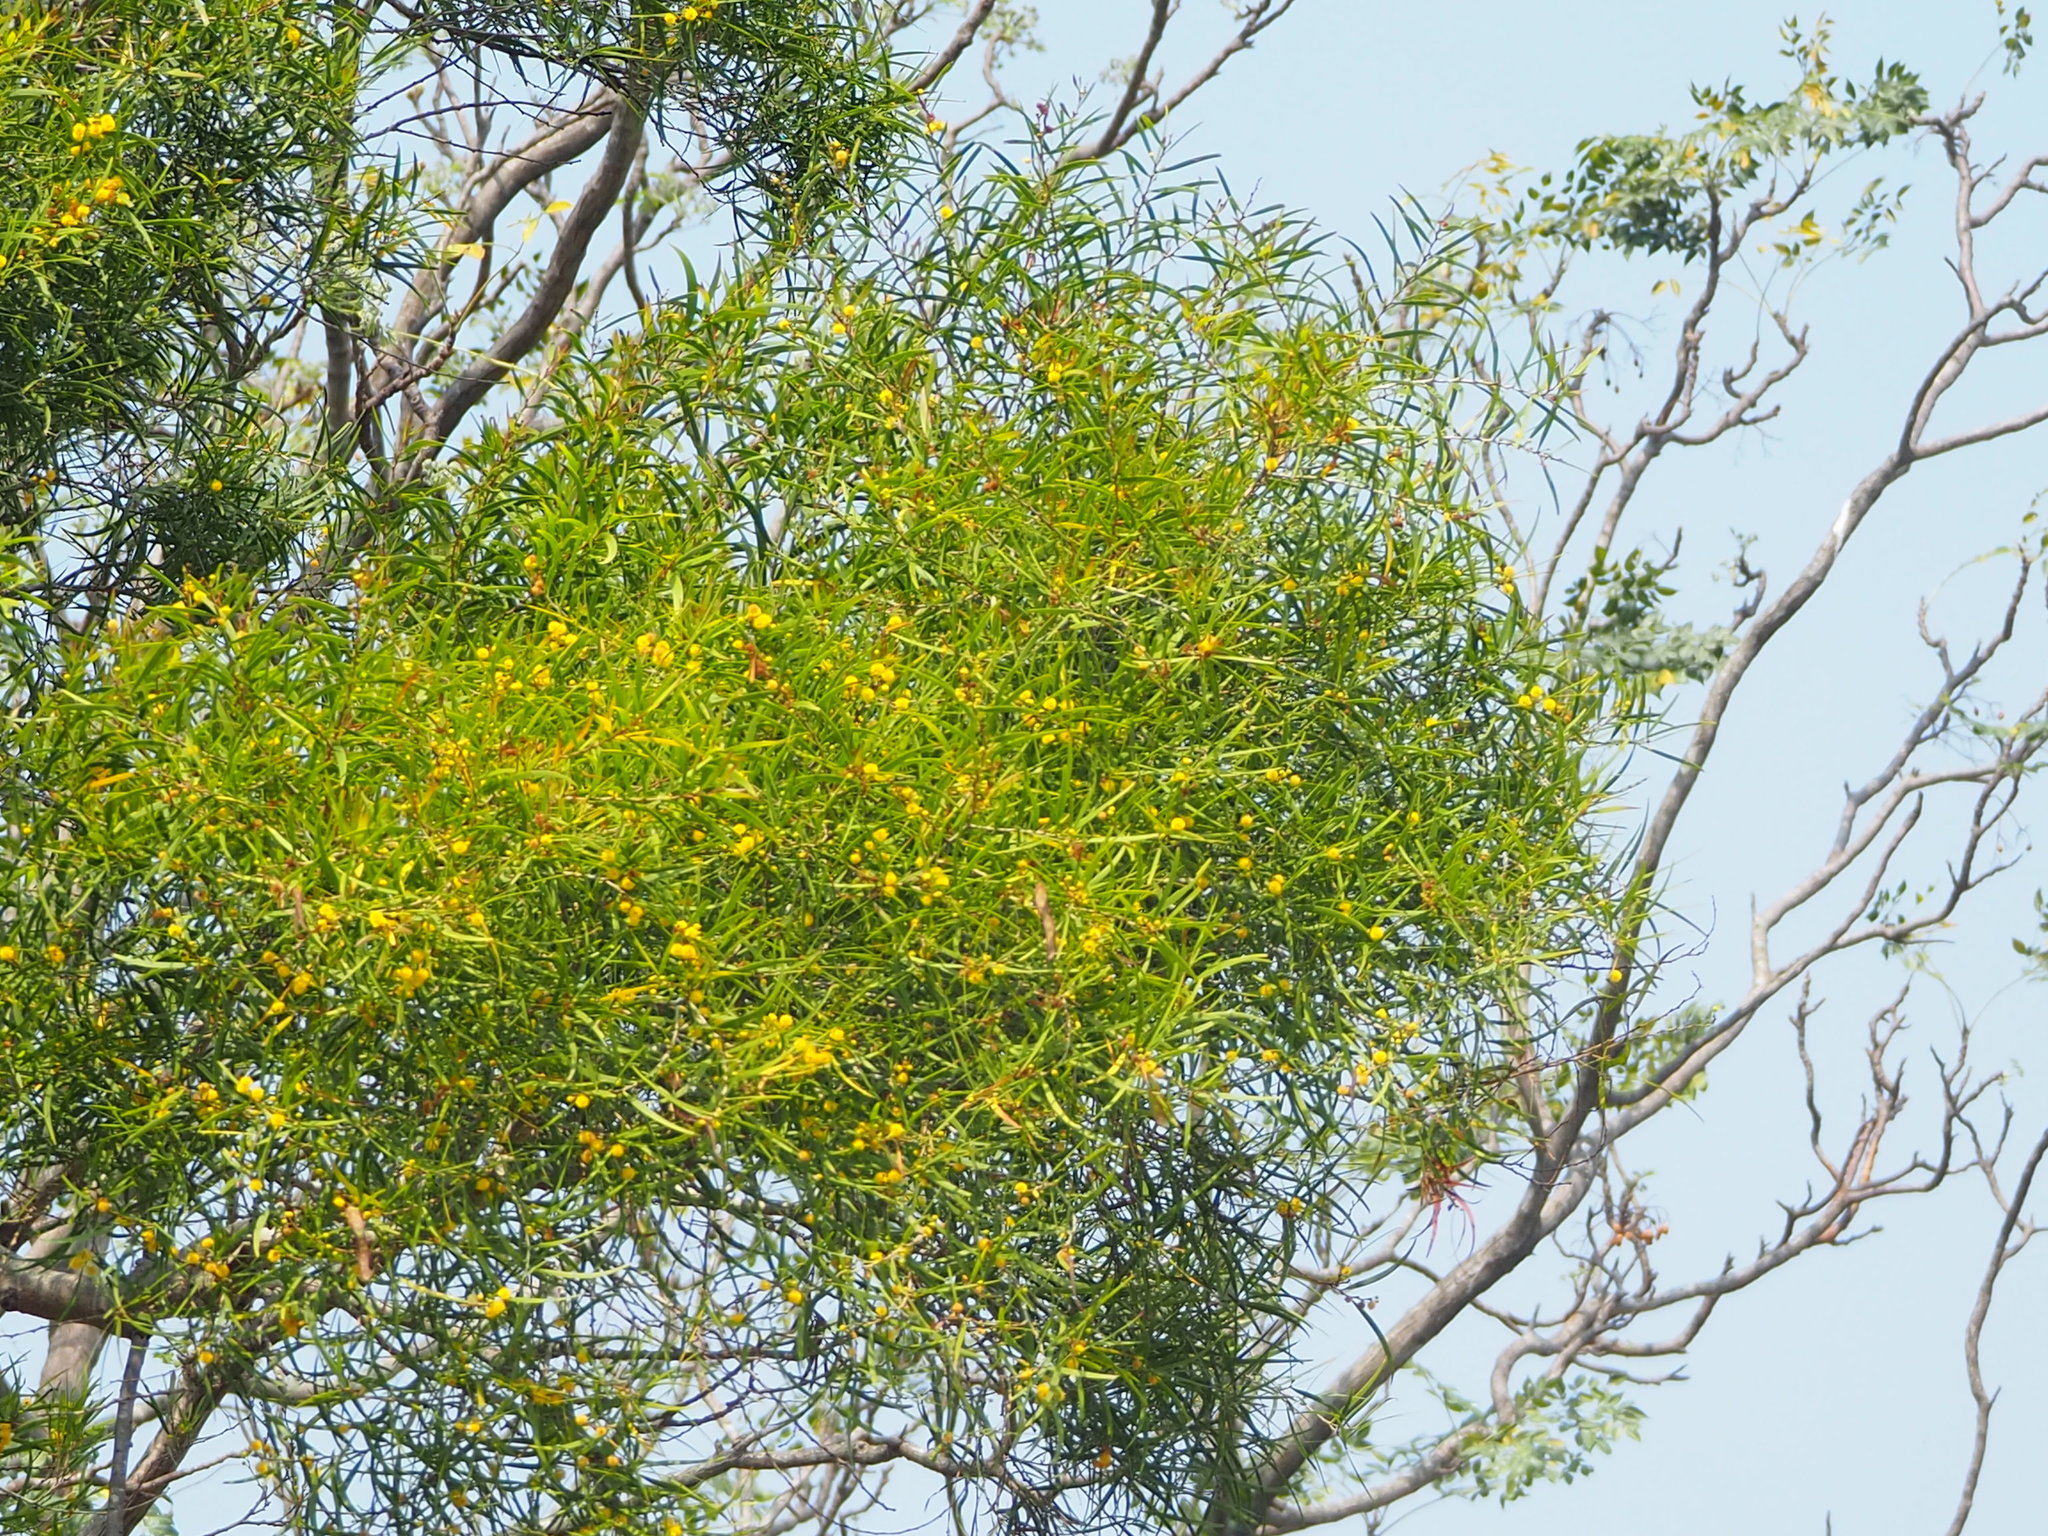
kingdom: Plantae
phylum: Tracheophyta
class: Magnoliopsida
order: Fabales
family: Fabaceae
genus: Acacia
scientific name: Acacia confusa
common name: Formosan koa
